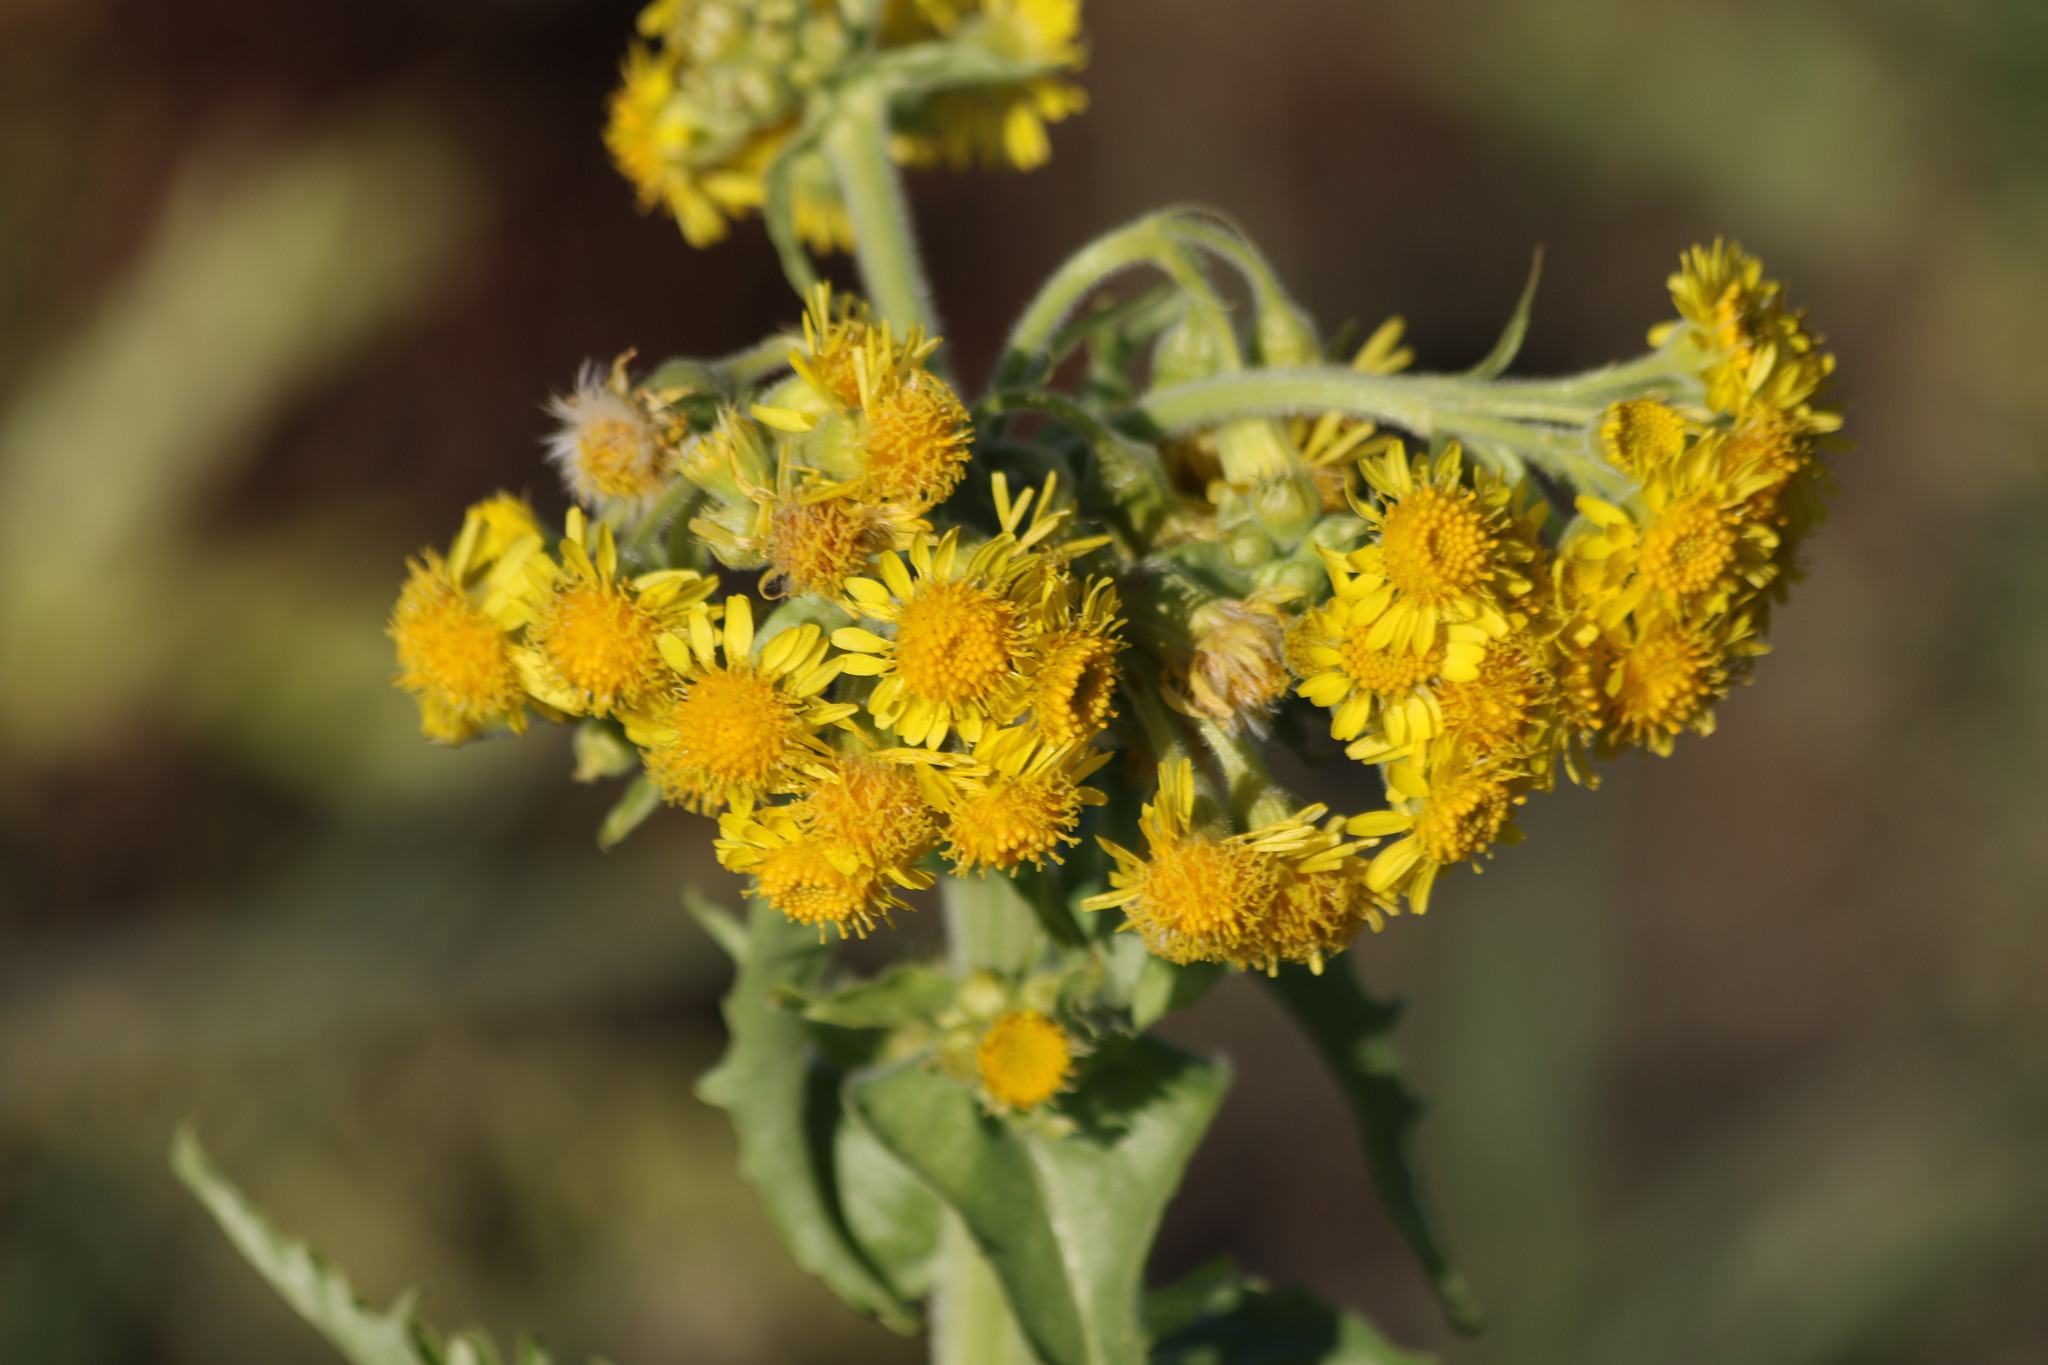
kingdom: Plantae
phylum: Tracheophyta
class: Magnoliopsida
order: Asterales
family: Asteraceae
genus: Tephroseris
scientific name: Tephroseris palustris
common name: Marsh fleawort
